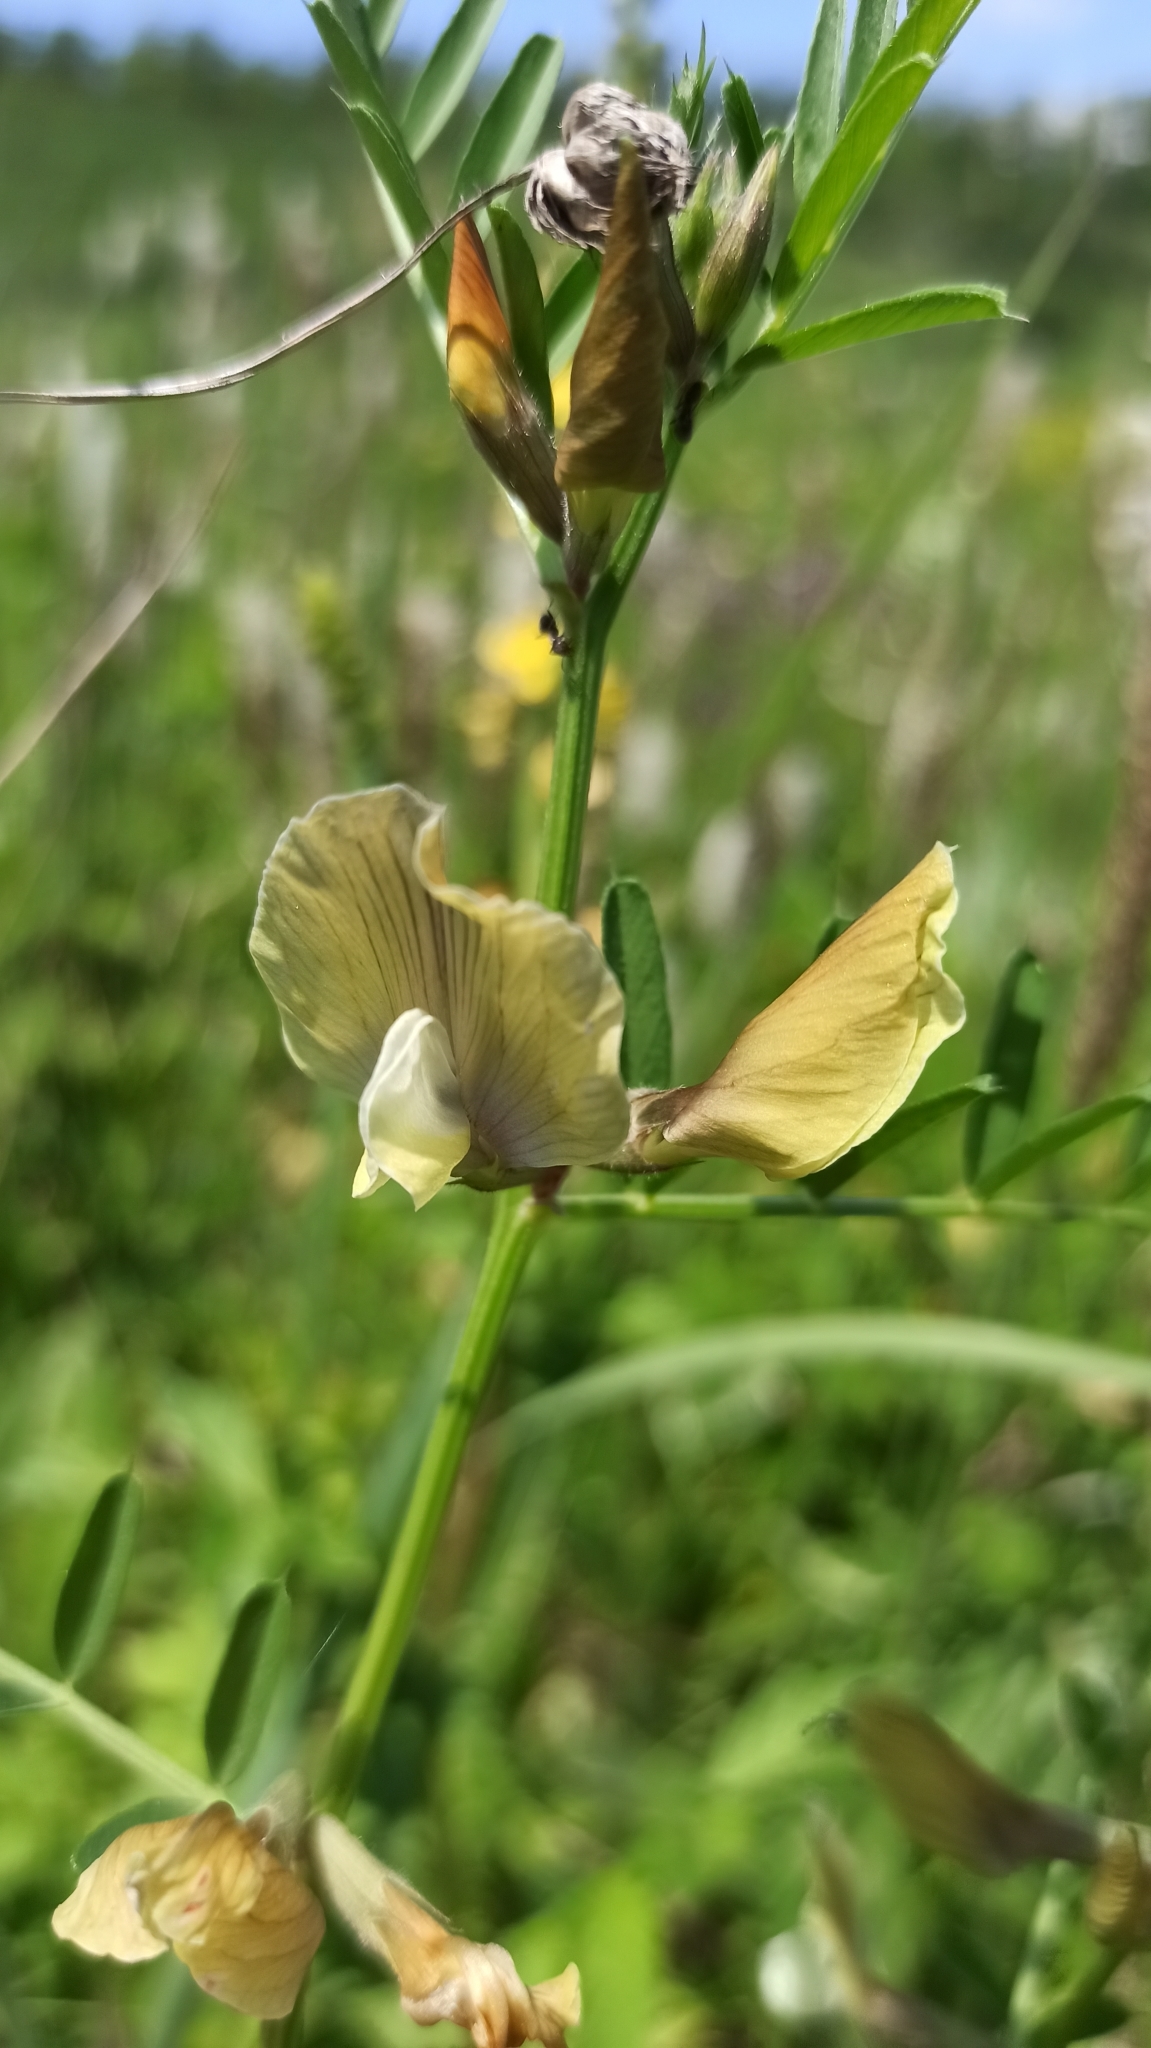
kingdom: Plantae
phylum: Tracheophyta
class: Magnoliopsida
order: Fabales
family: Fabaceae
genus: Vicia
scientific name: Vicia grandiflora
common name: Large yellow vetch
